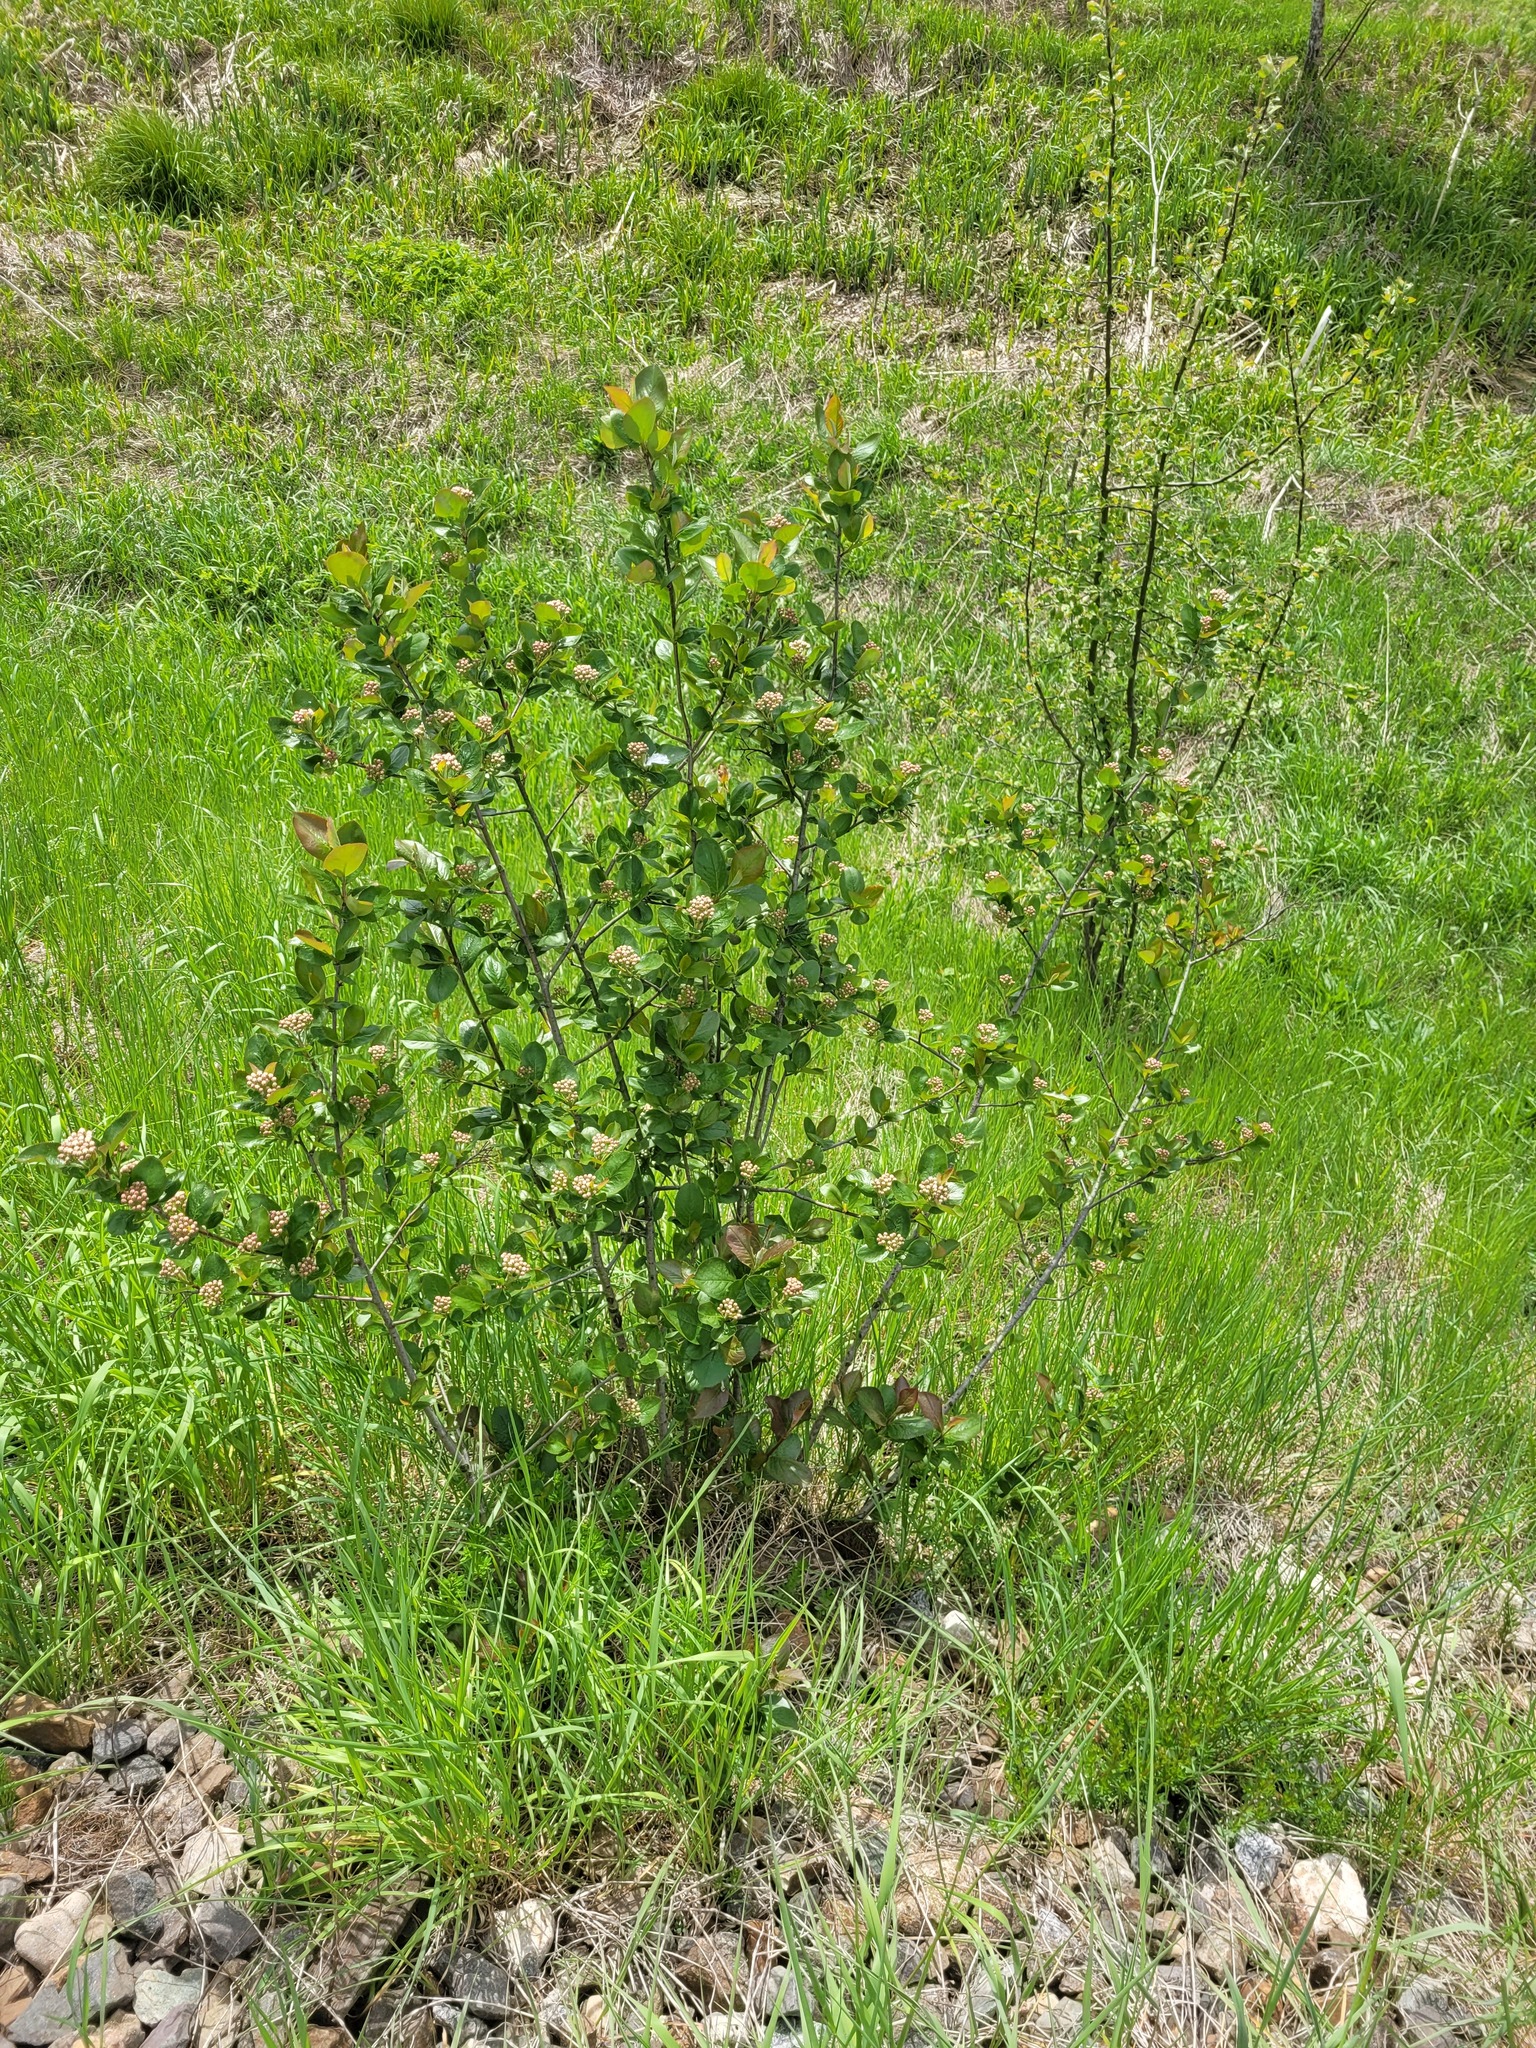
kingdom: Plantae
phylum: Tracheophyta
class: Magnoliopsida
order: Rosales
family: Rosaceae
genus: Sorbaronia
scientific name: Sorbaronia arsenii
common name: Arsène's mountain-ash
